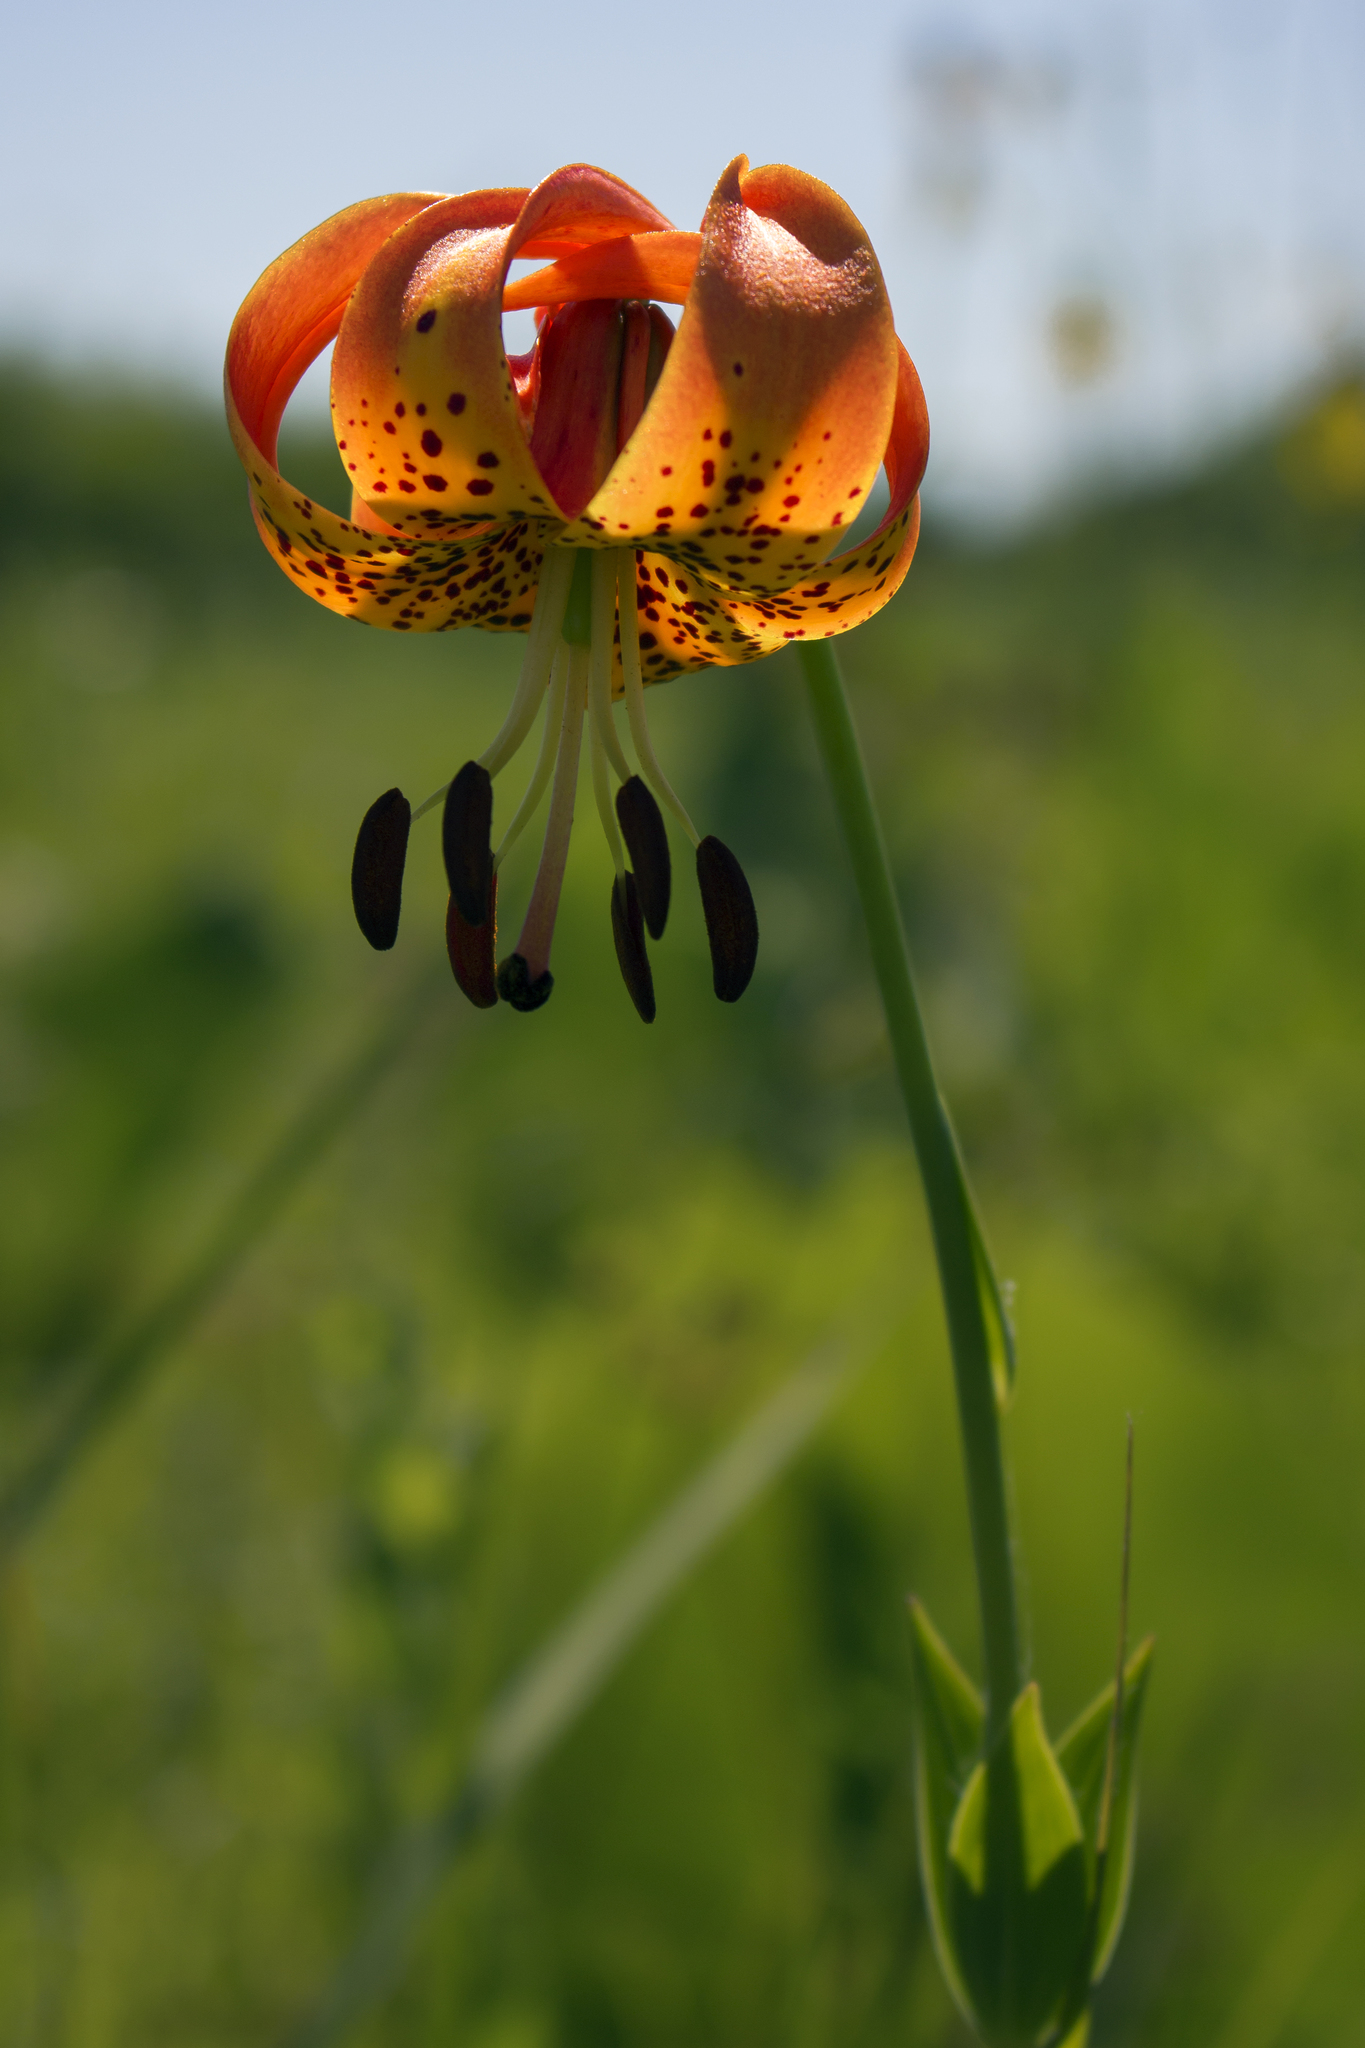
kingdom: Plantae
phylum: Tracheophyta
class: Liliopsida
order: Liliales
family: Liliaceae
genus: Lilium
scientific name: Lilium michiganense
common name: Michigan lily
